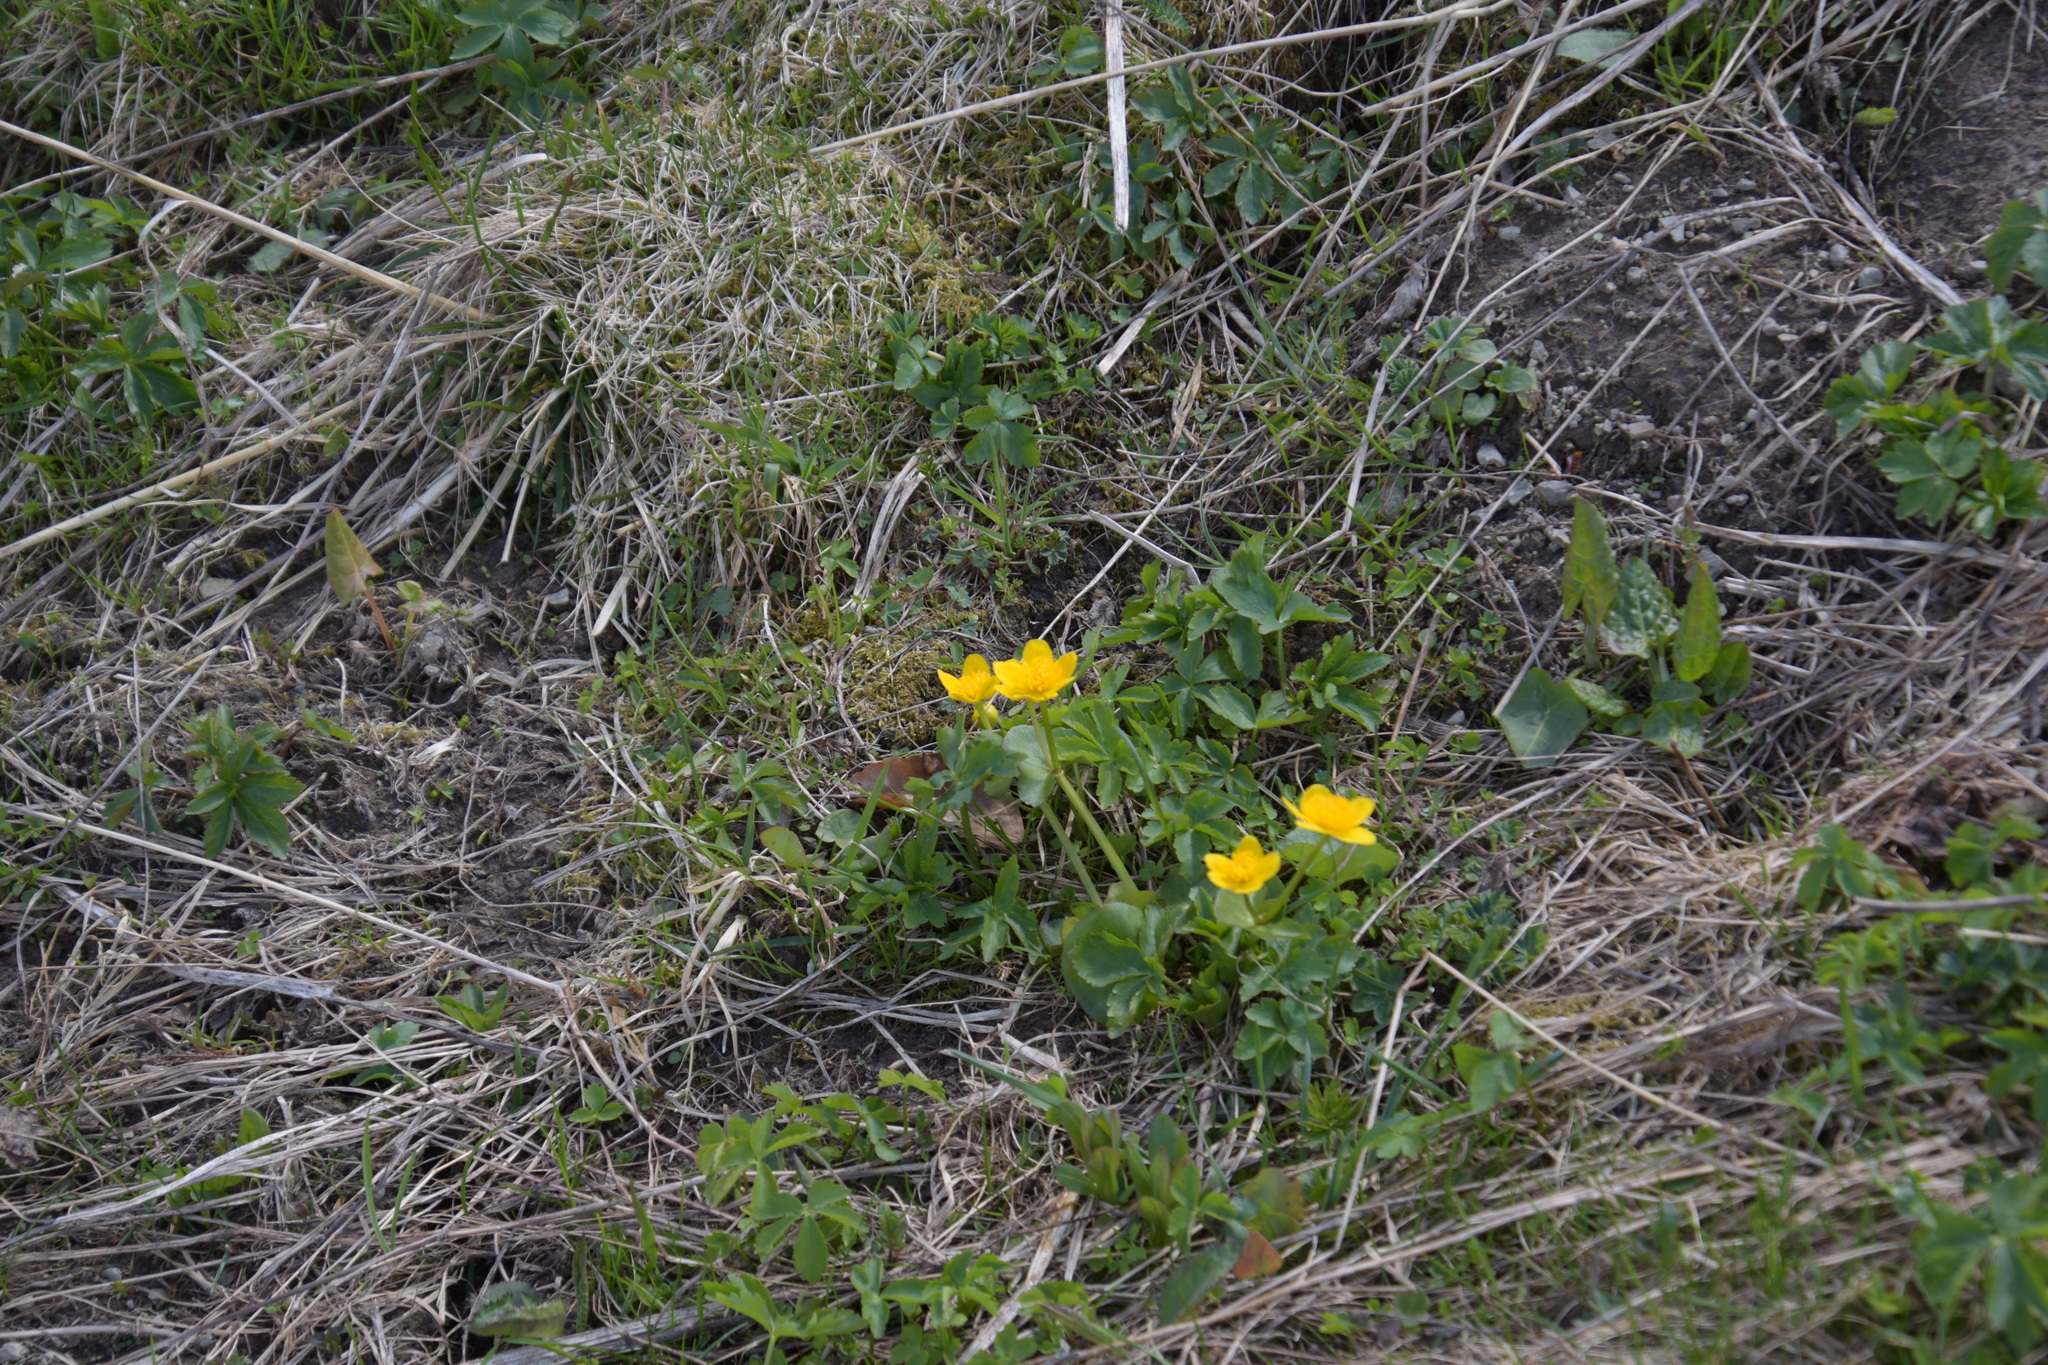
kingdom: Plantae
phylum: Tracheophyta
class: Magnoliopsida
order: Ranunculales
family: Ranunculaceae
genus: Caltha
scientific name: Caltha palustris
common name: Marsh marigold
